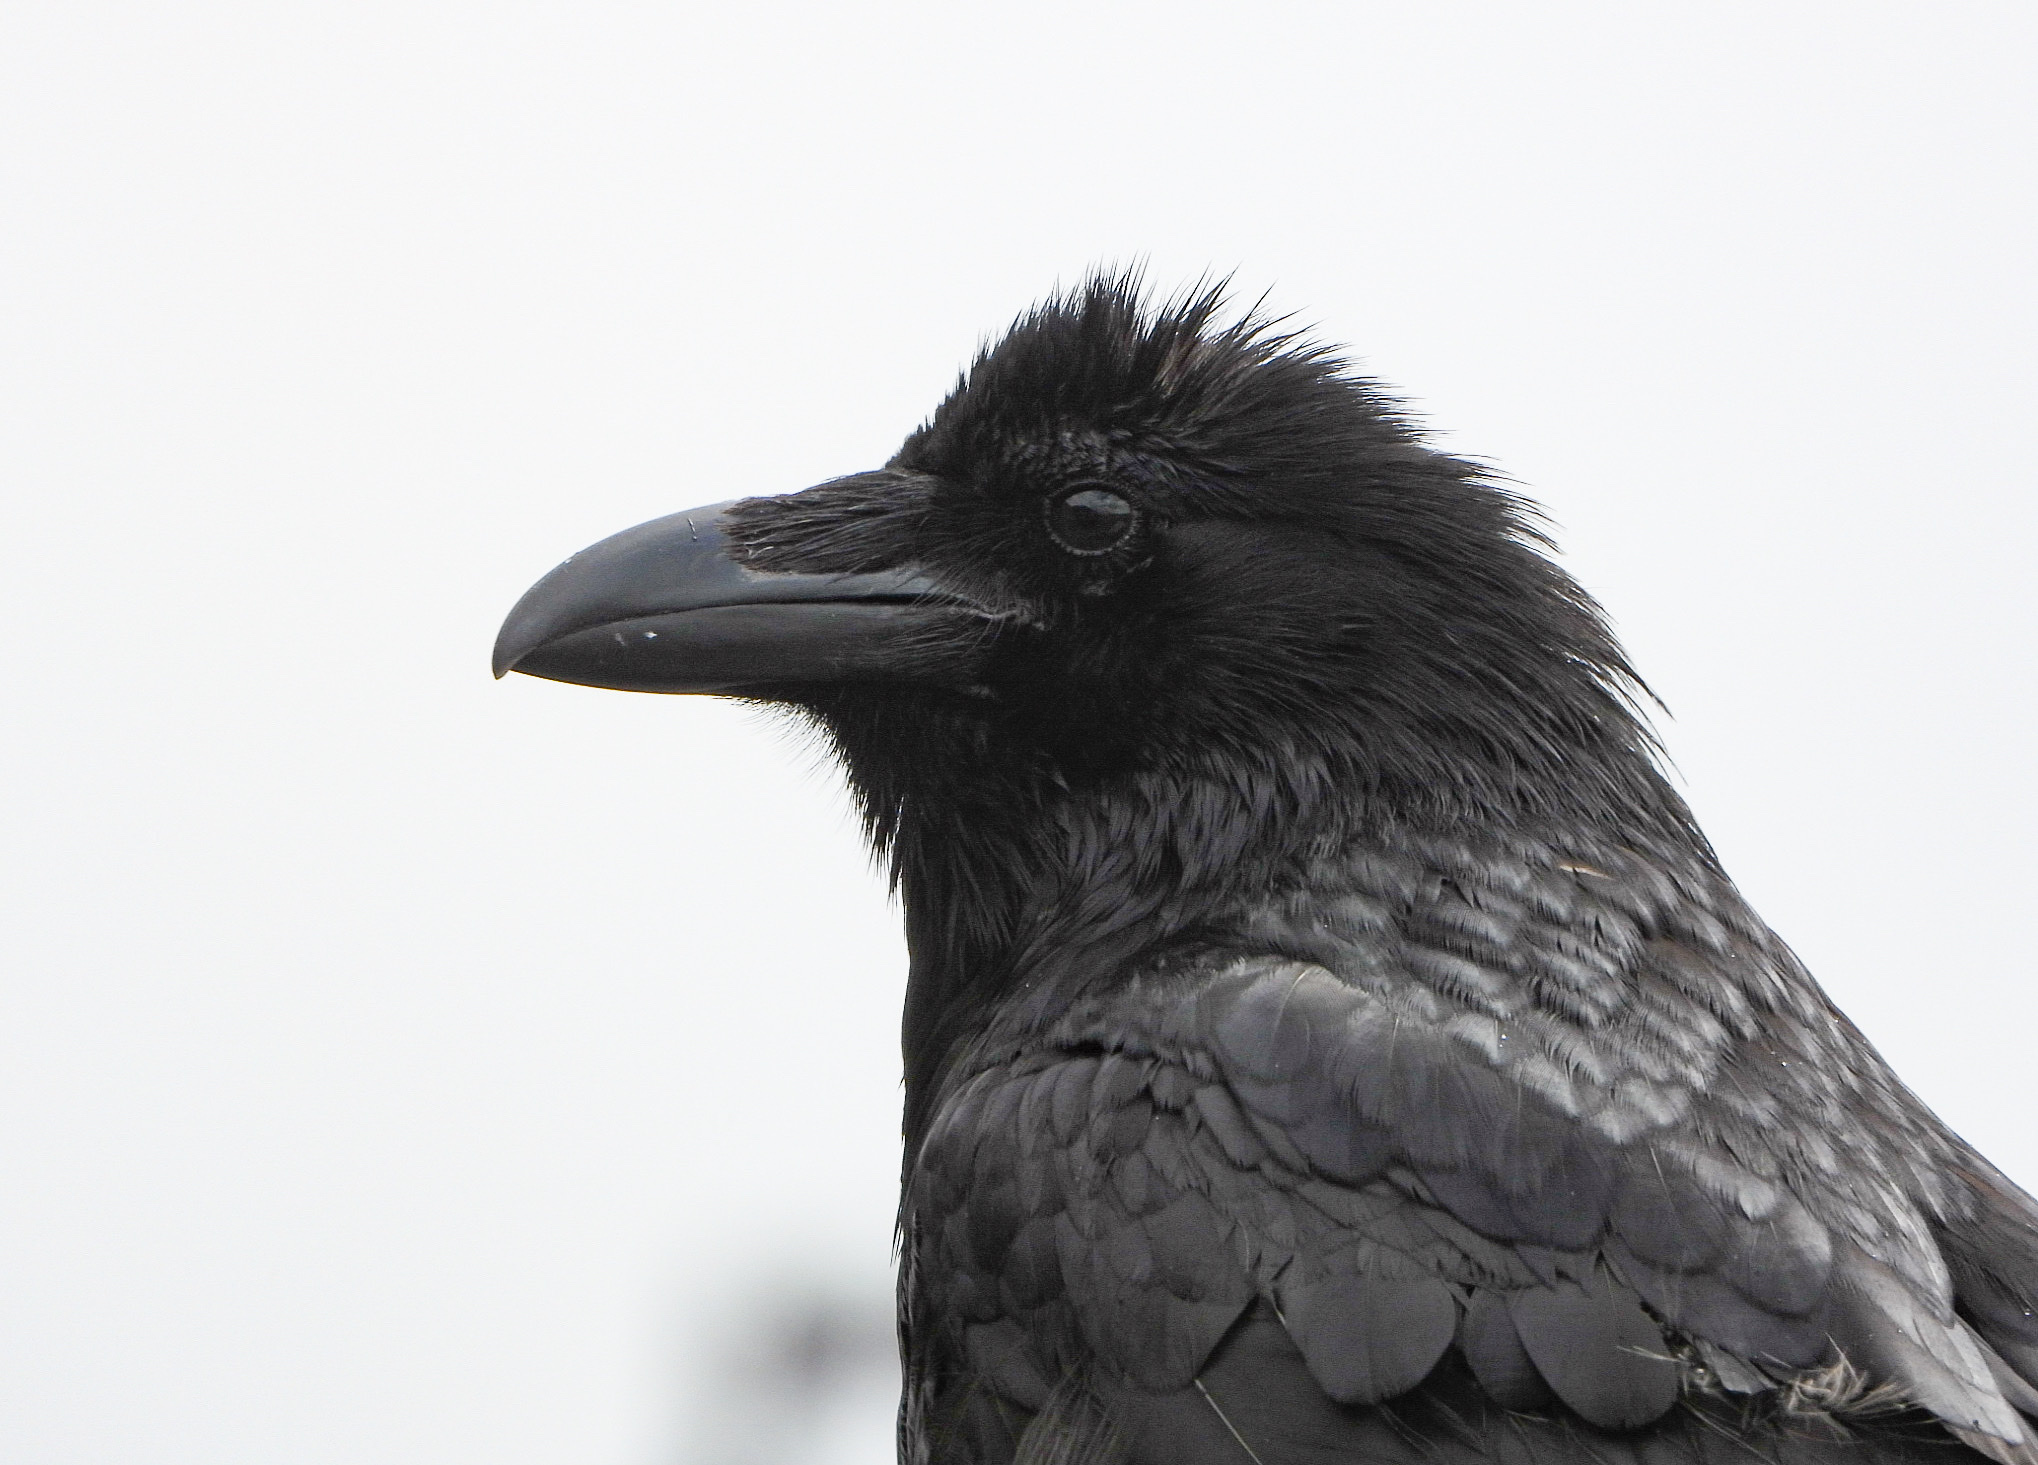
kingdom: Animalia
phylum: Chordata
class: Aves
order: Passeriformes
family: Corvidae
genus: Corvus
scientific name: Corvus corax
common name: Common raven
